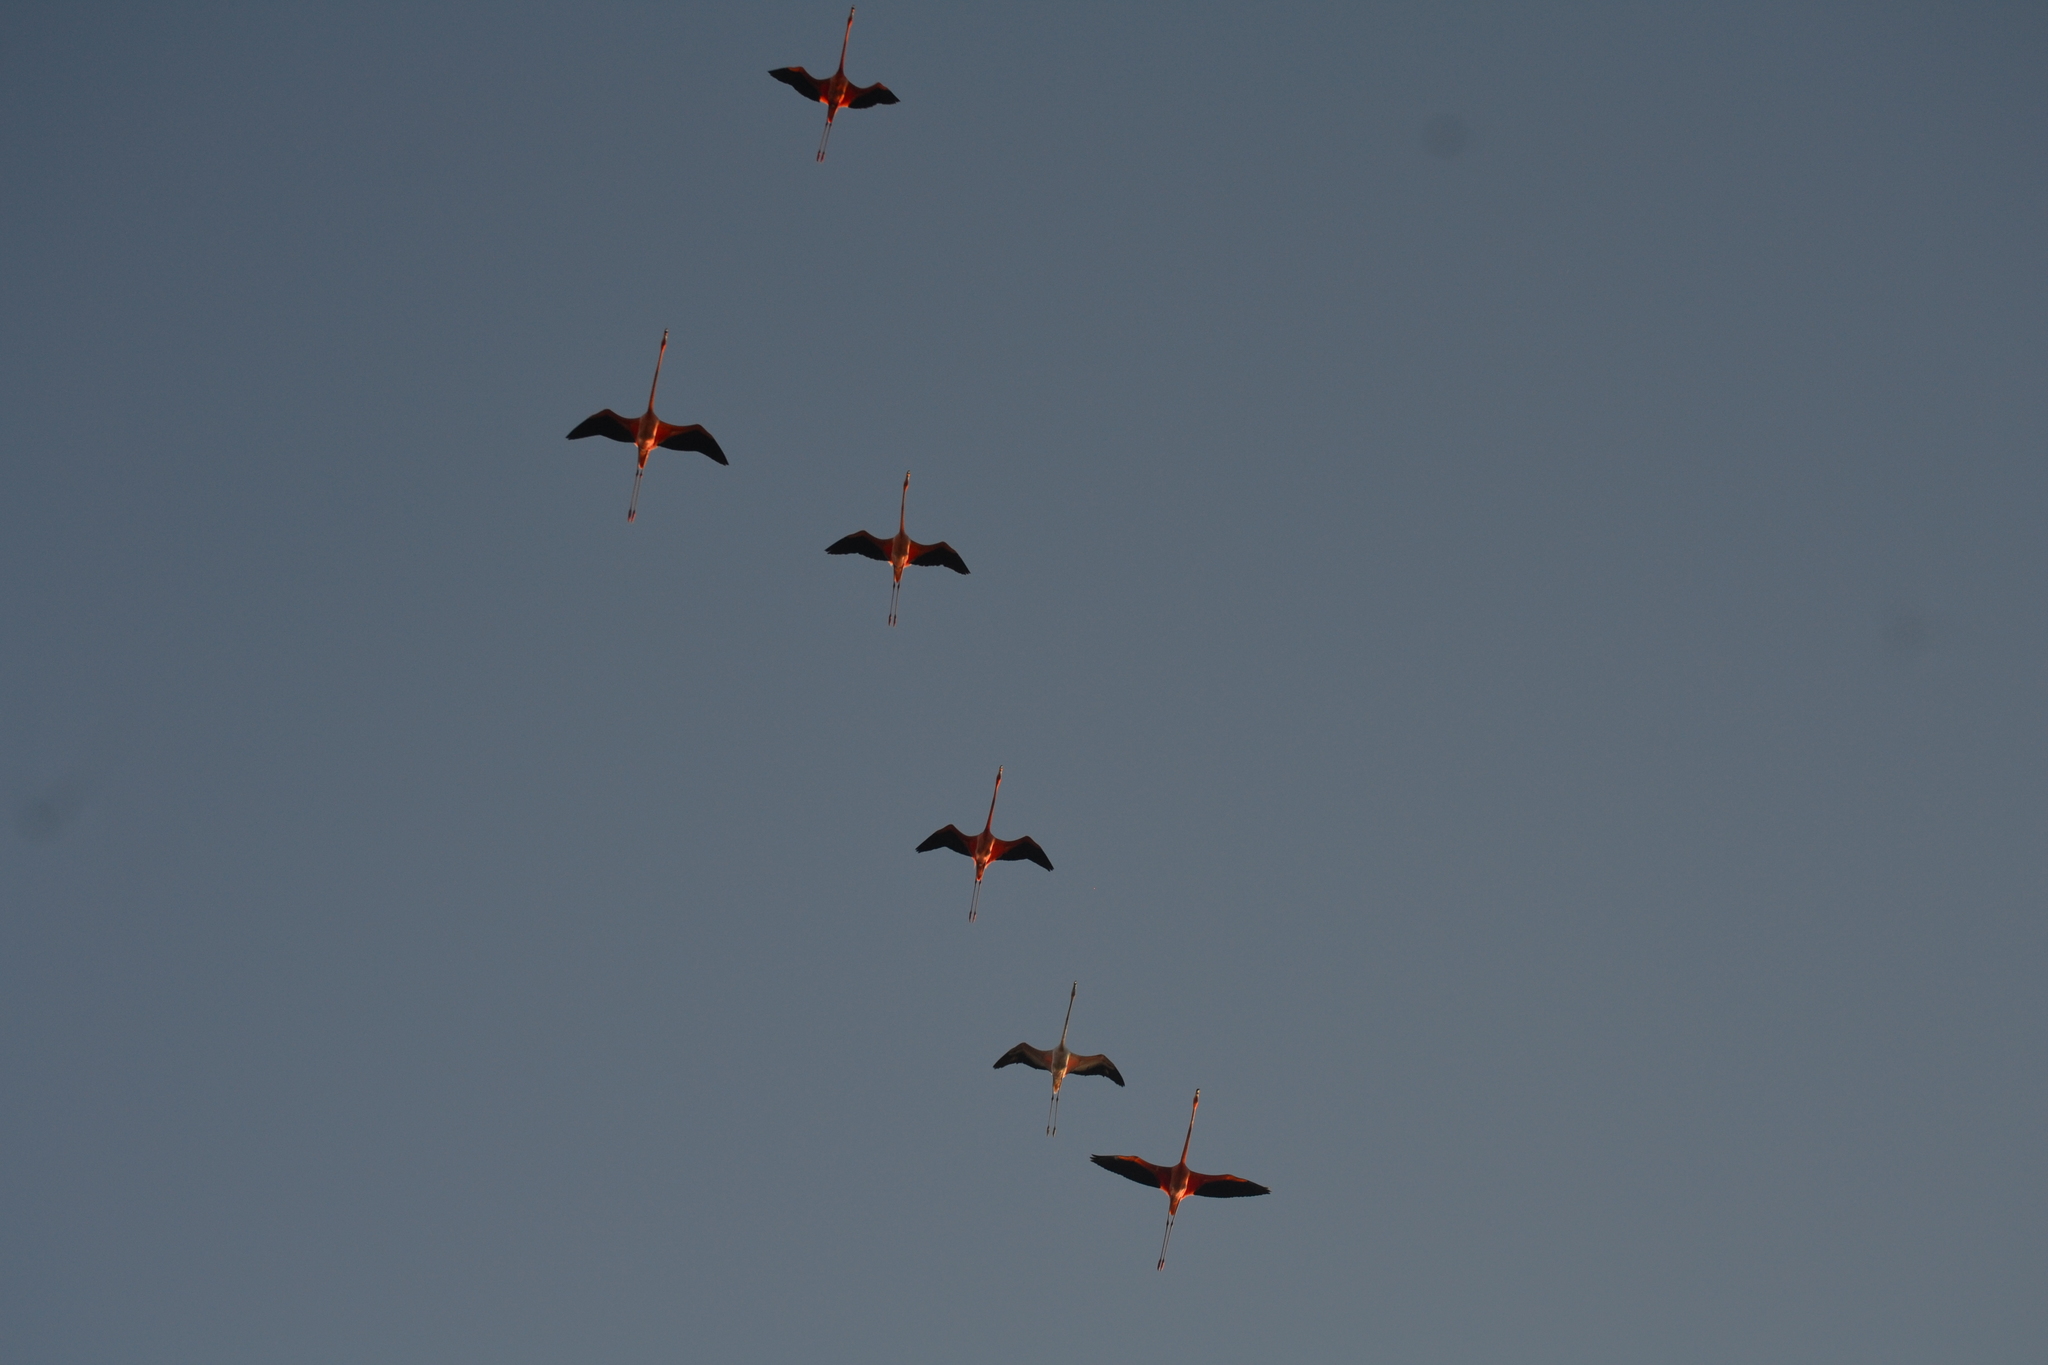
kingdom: Animalia
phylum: Chordata
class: Aves
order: Phoenicopteriformes
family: Phoenicopteridae
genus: Phoenicopterus
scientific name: Phoenicopterus ruber
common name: American flamingo
